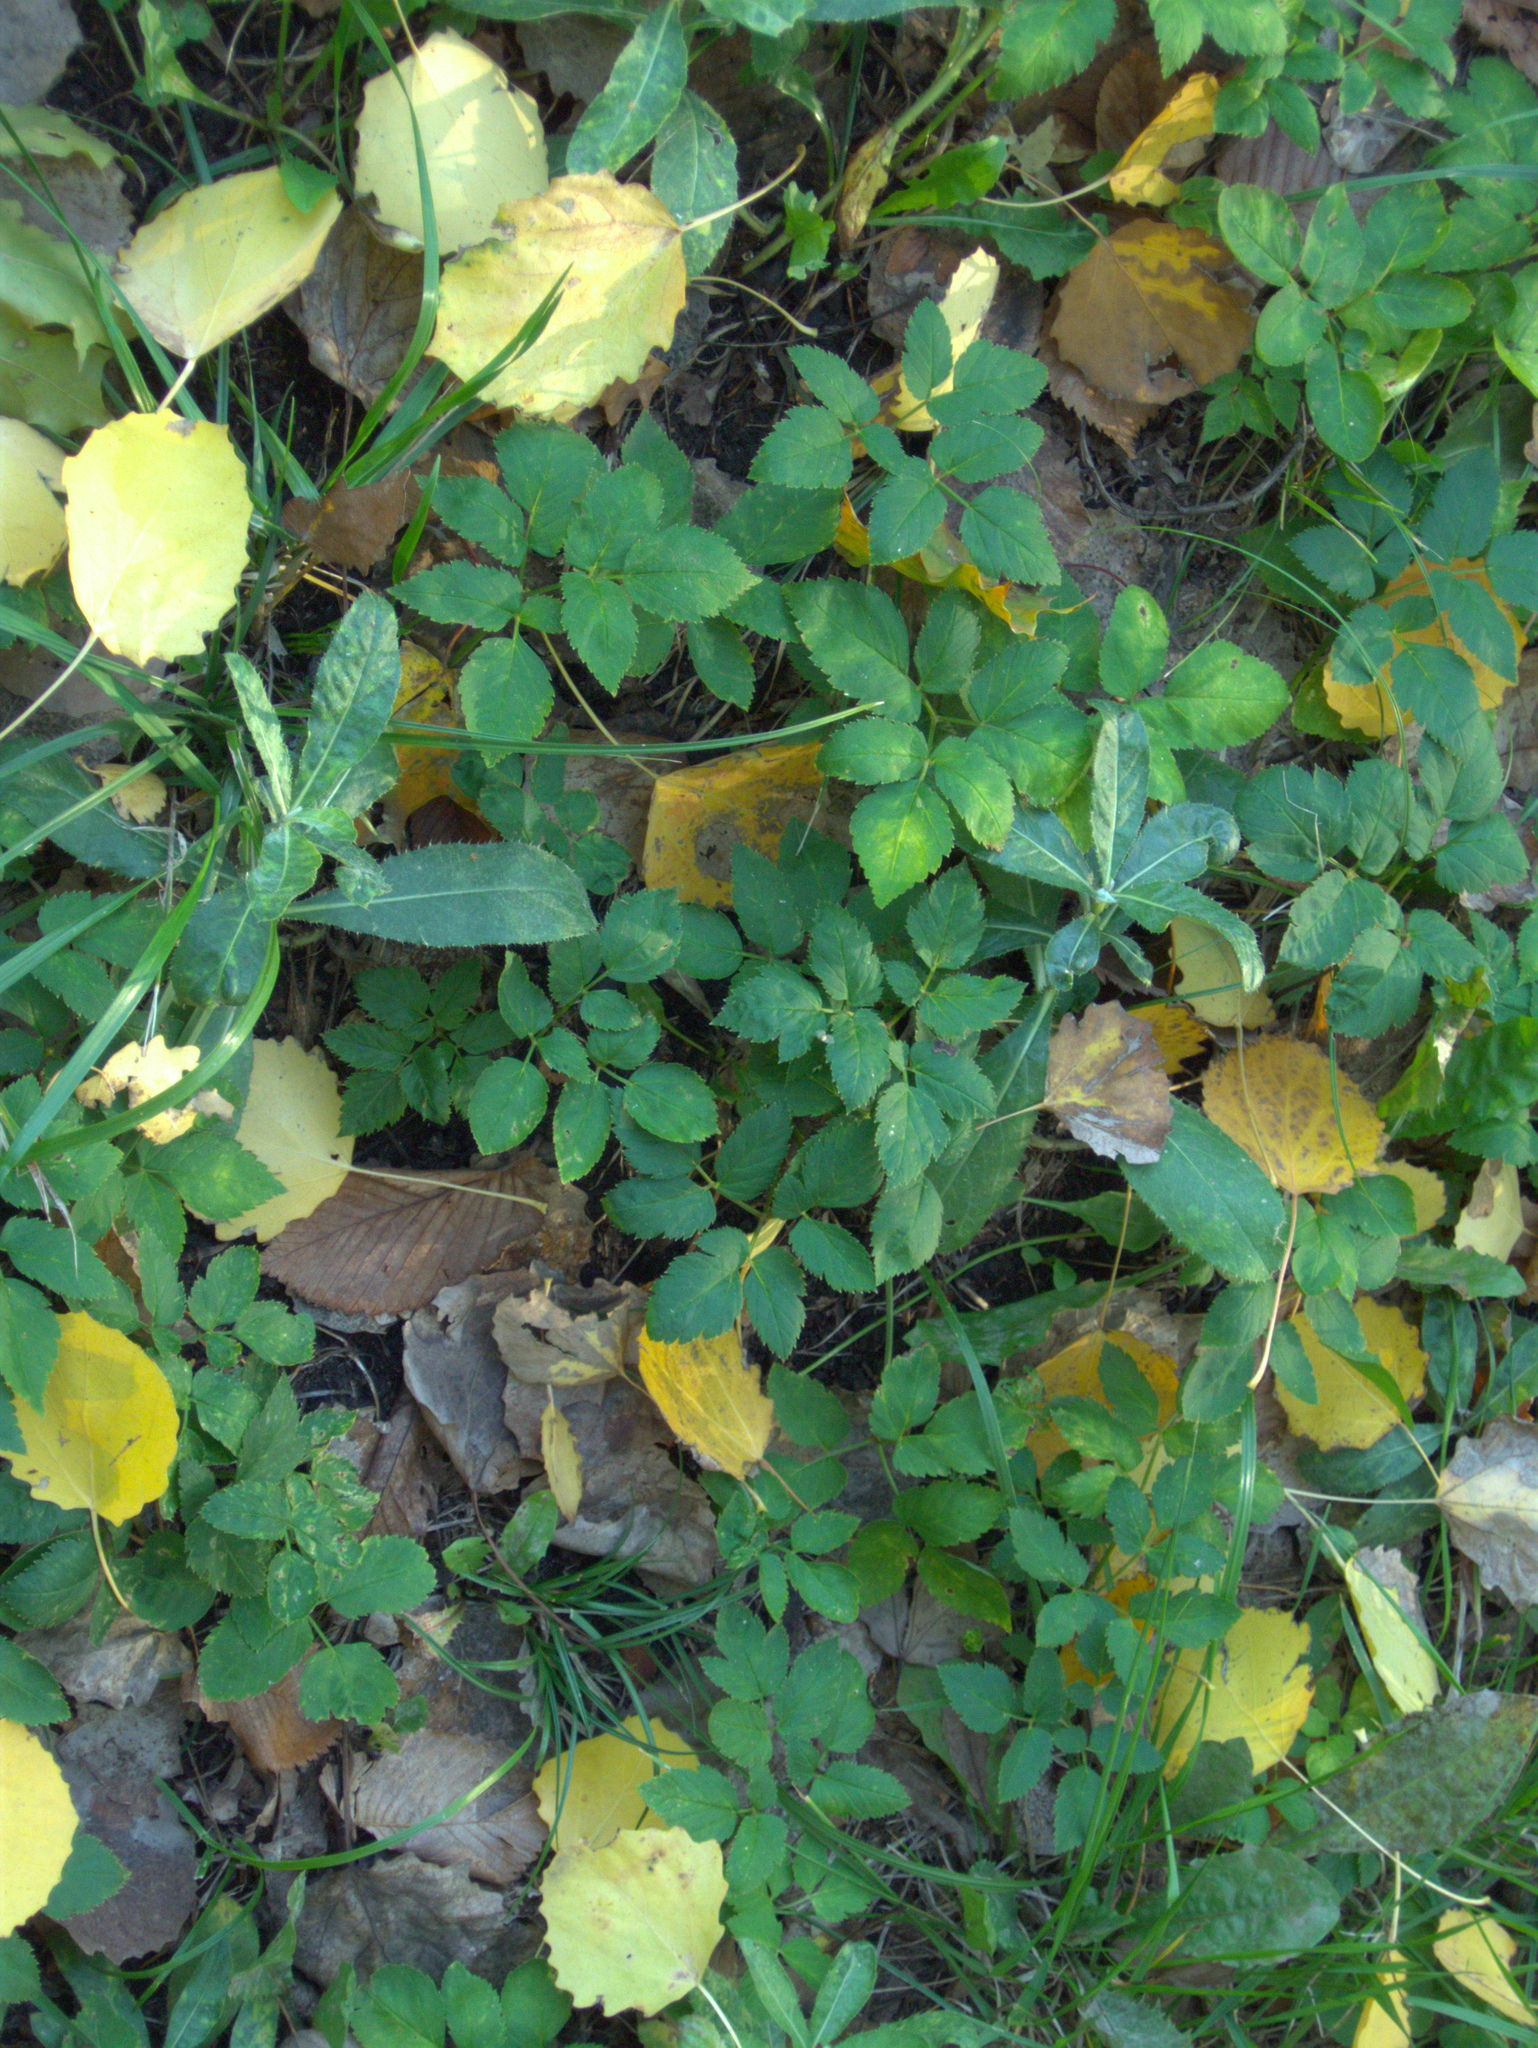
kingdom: Plantae
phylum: Tracheophyta
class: Magnoliopsida
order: Apiales
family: Apiaceae
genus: Aegopodium
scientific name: Aegopodium podagraria
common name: Ground-elder
